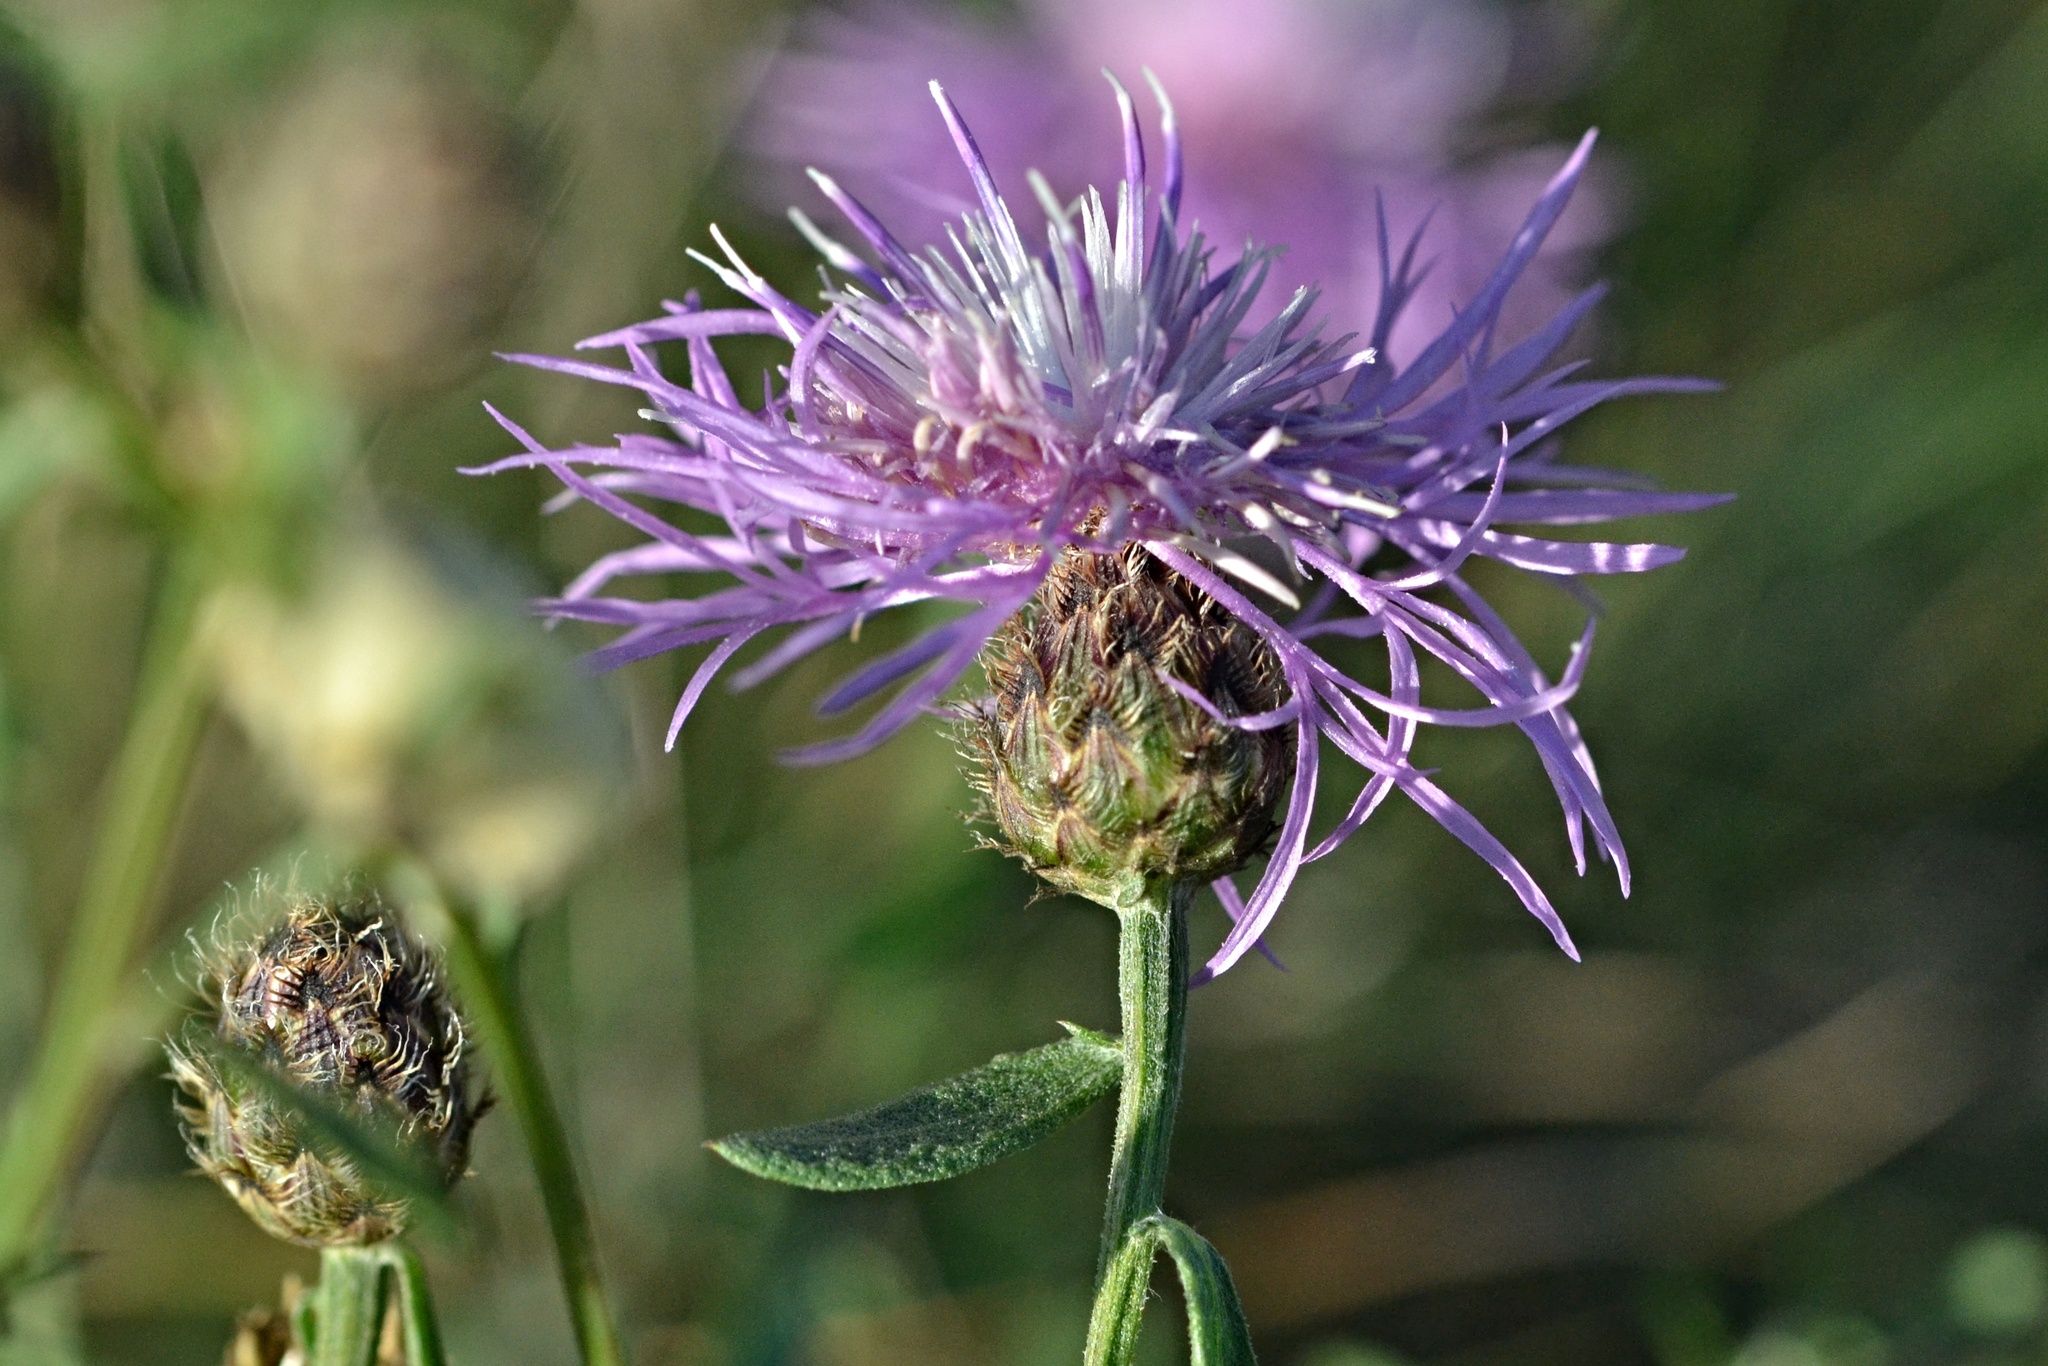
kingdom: Plantae
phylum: Tracheophyta
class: Magnoliopsida
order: Asterales
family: Asteraceae
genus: Centaurea
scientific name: Centaurea stoebe
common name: Spotted knapweed
